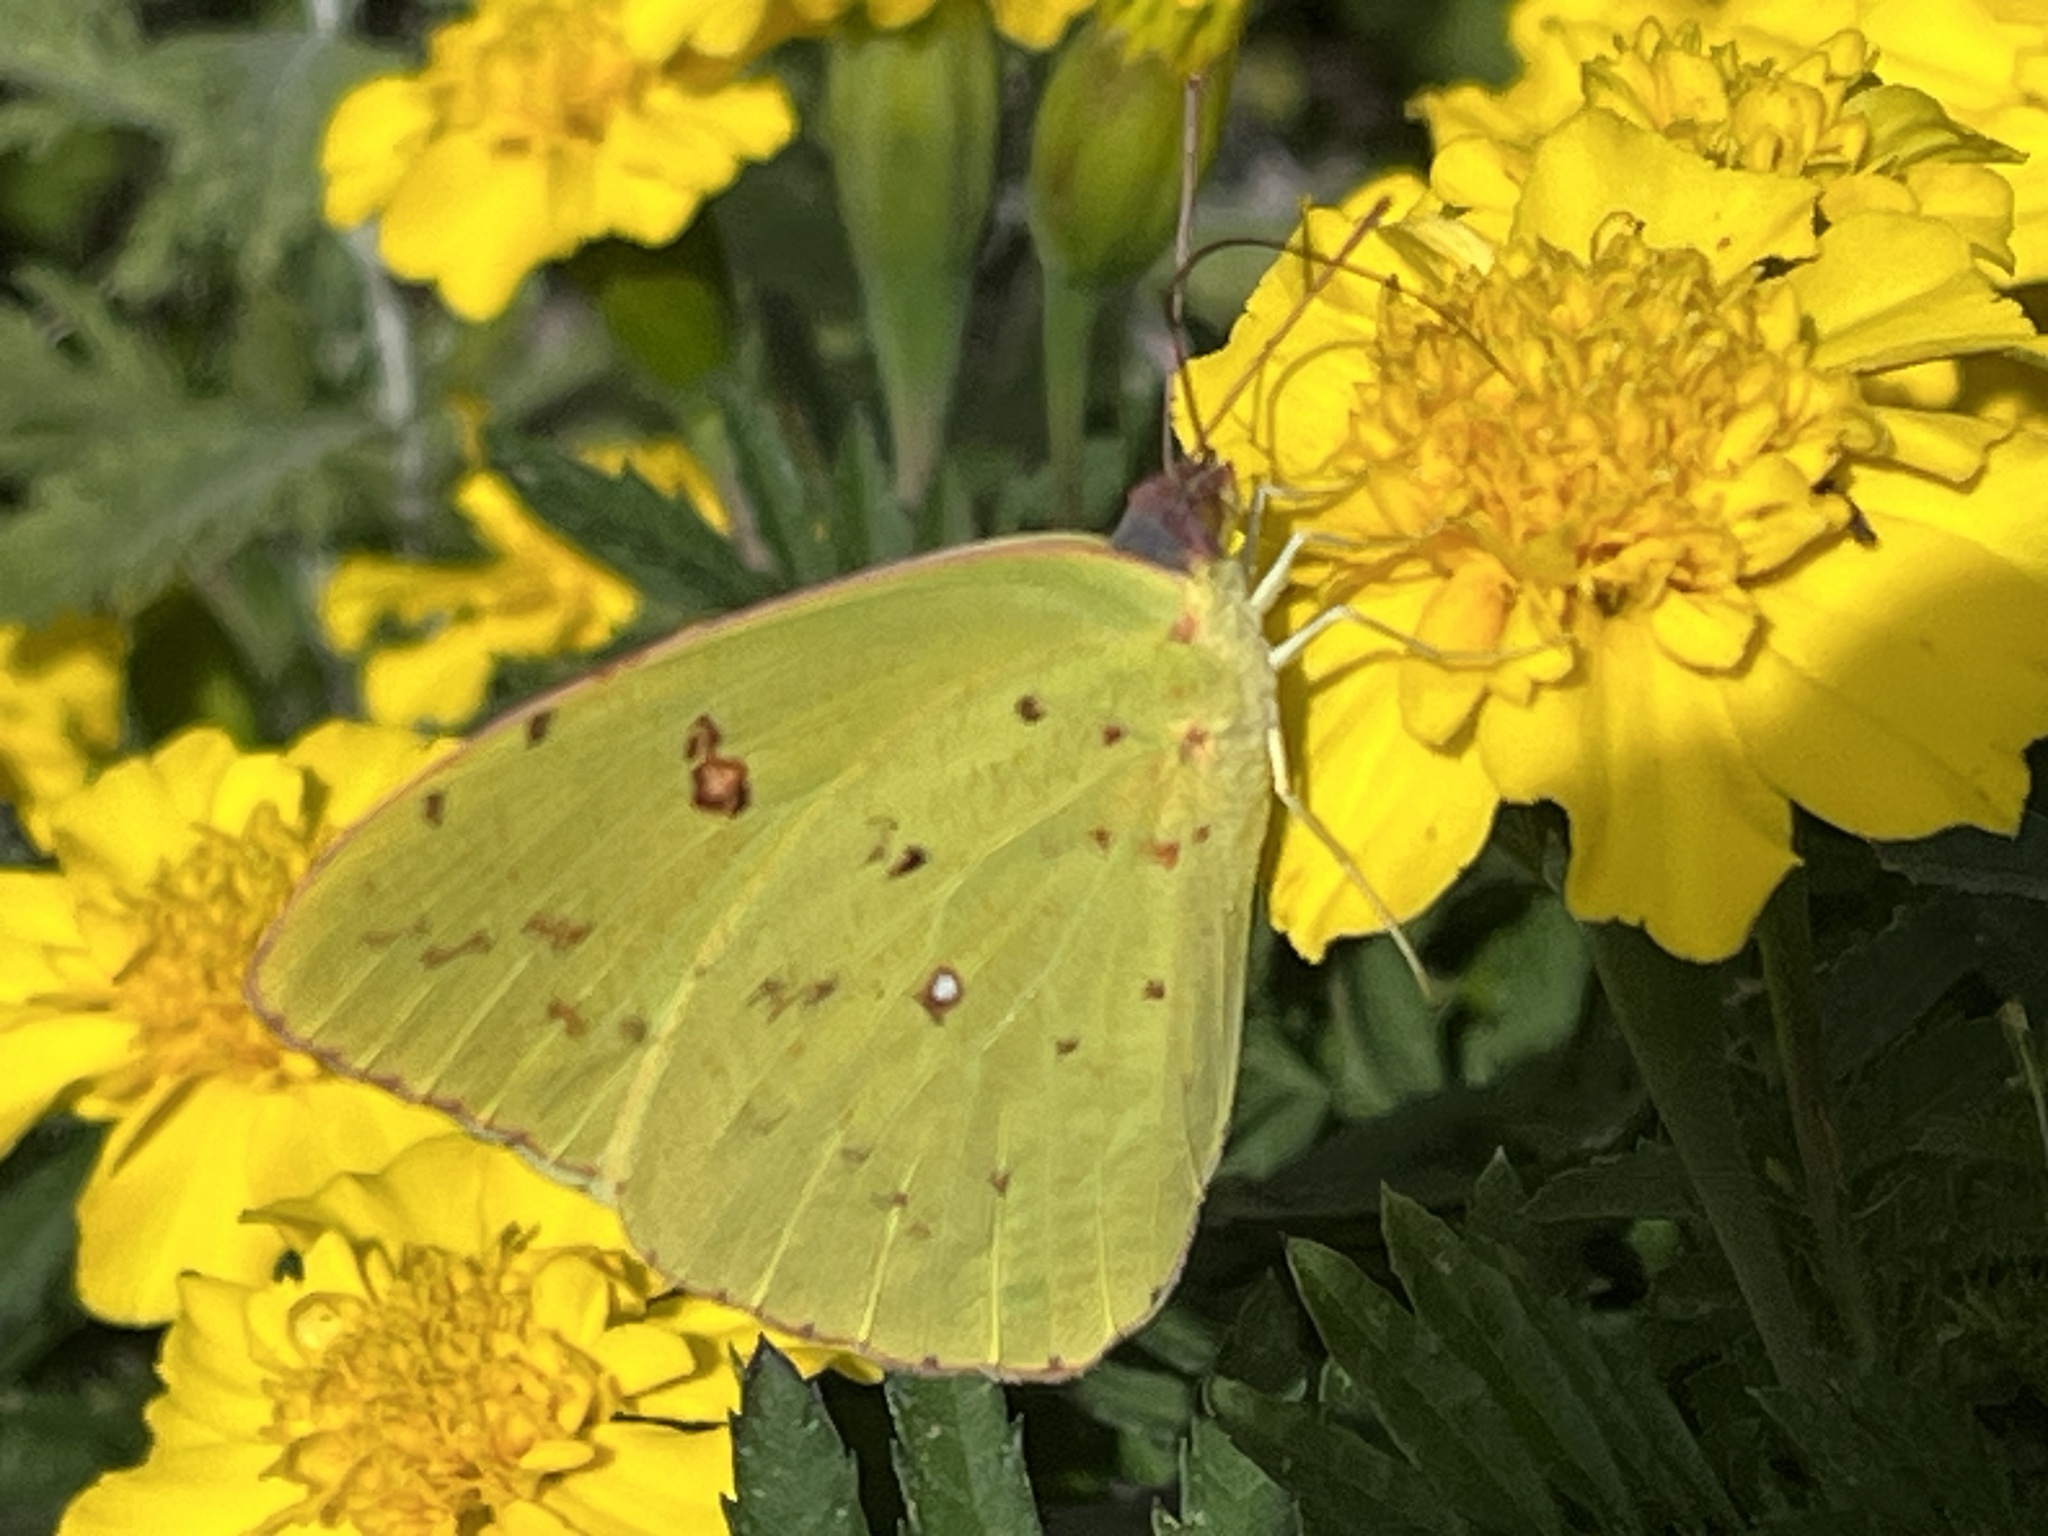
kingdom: Animalia
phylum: Arthropoda
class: Insecta
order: Lepidoptera
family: Pieridae
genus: Phoebis
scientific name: Phoebis sennae
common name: Cloudless sulphur
